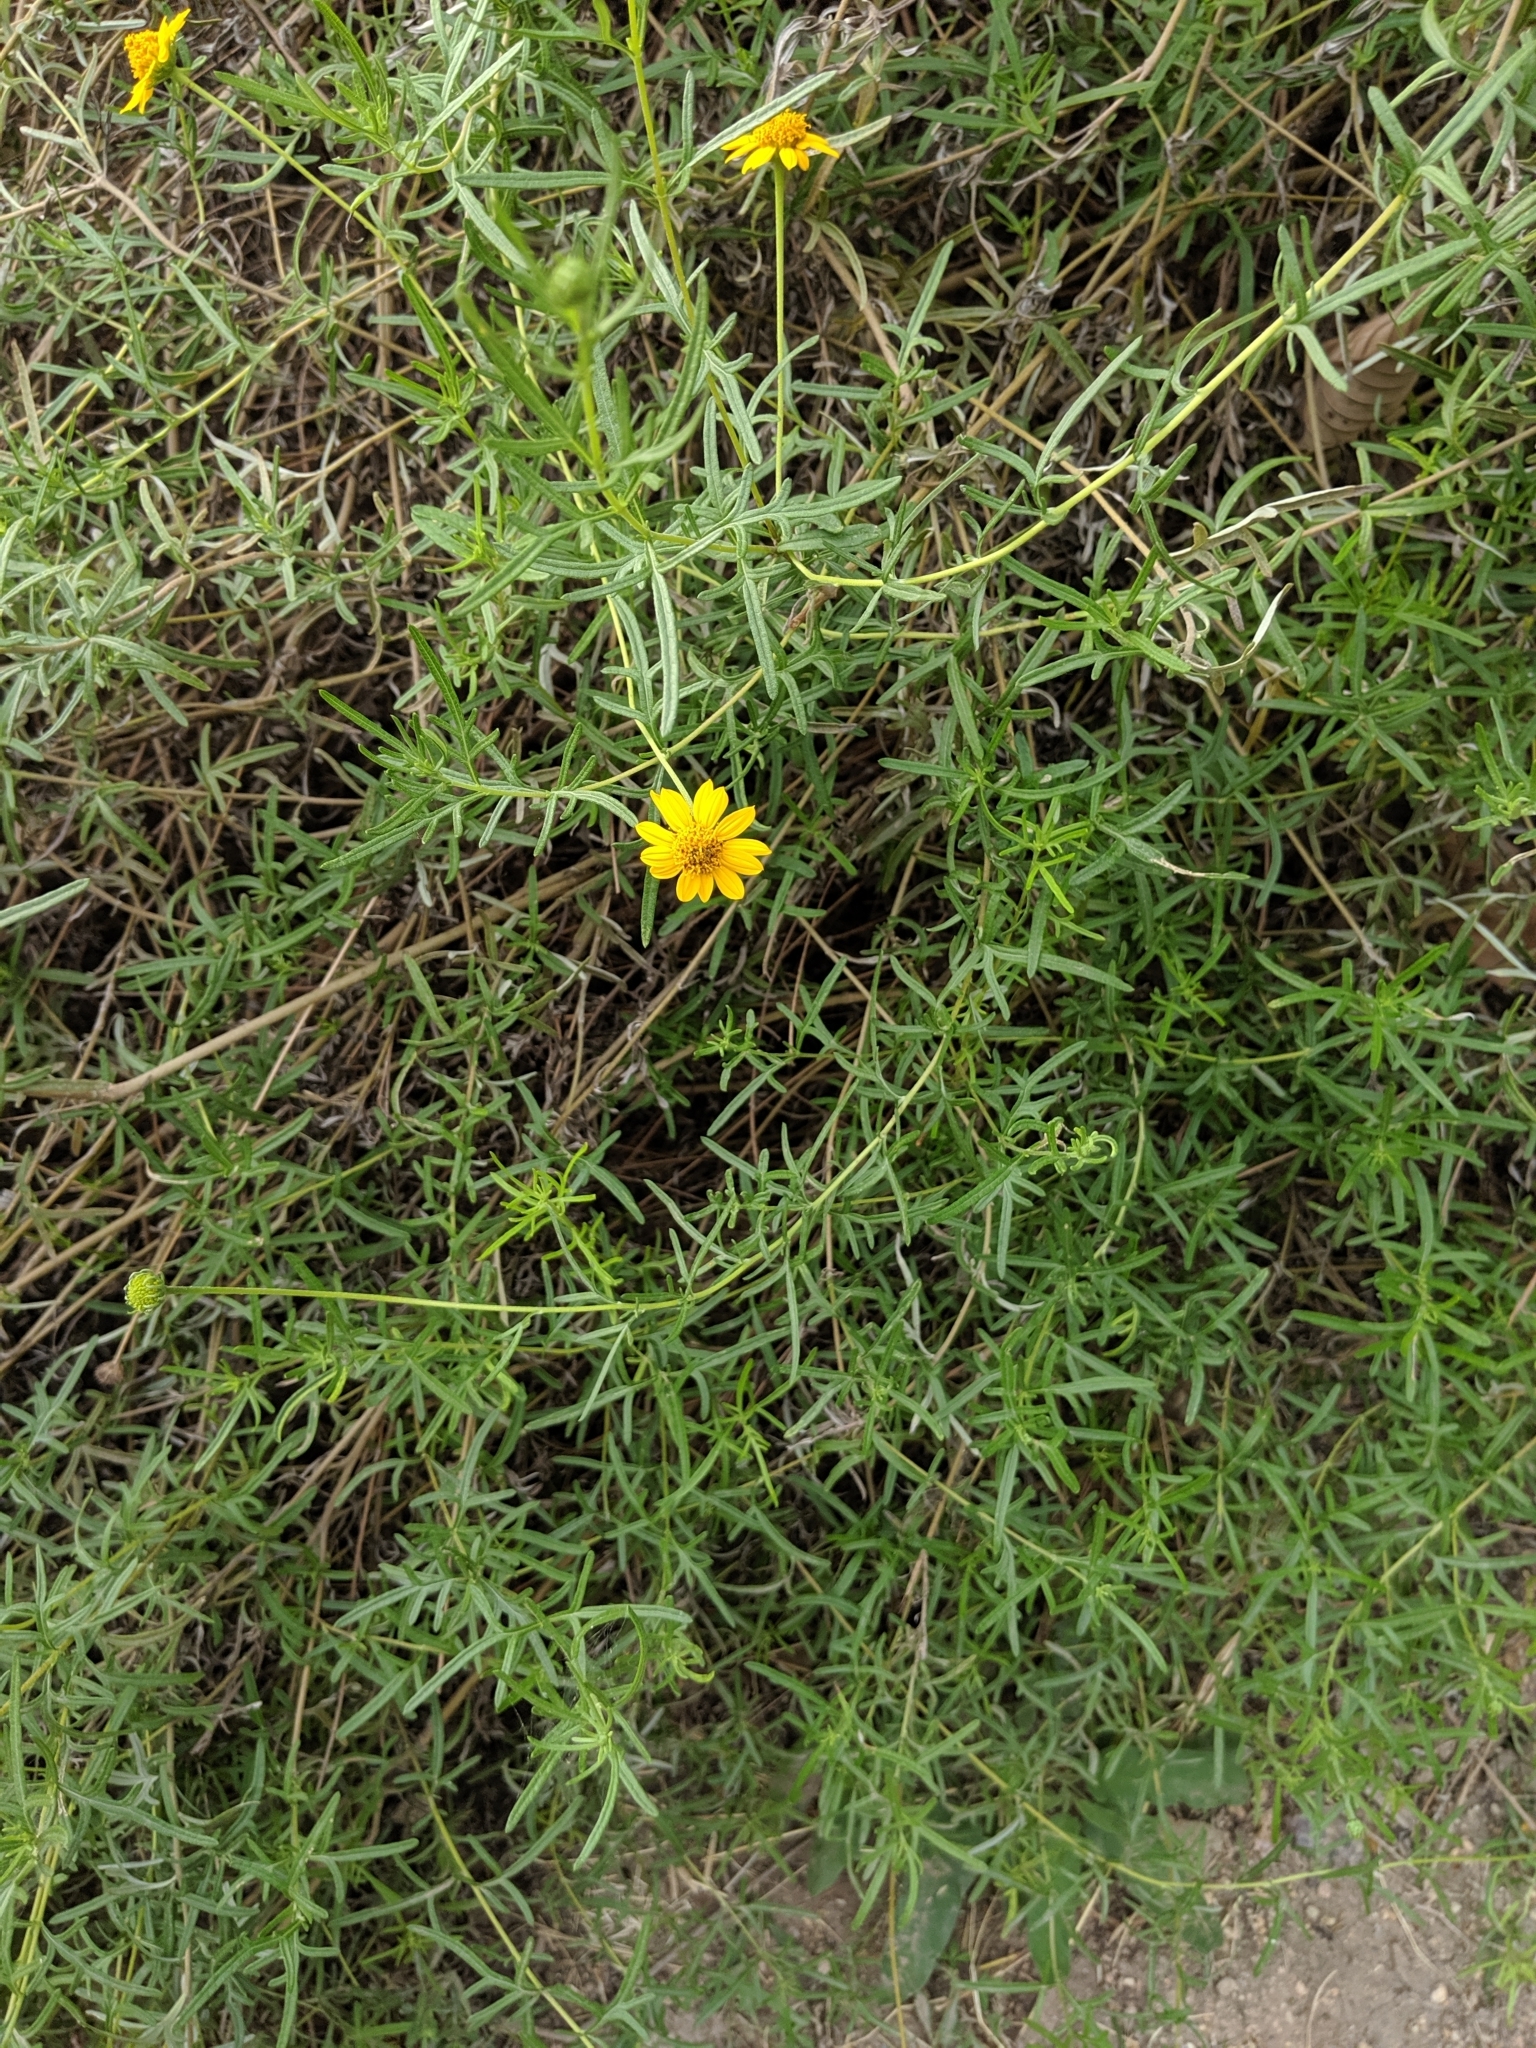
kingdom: Plantae
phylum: Tracheophyta
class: Magnoliopsida
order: Asterales
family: Asteraceae
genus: Sidneya
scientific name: Sidneya tenuifolia
